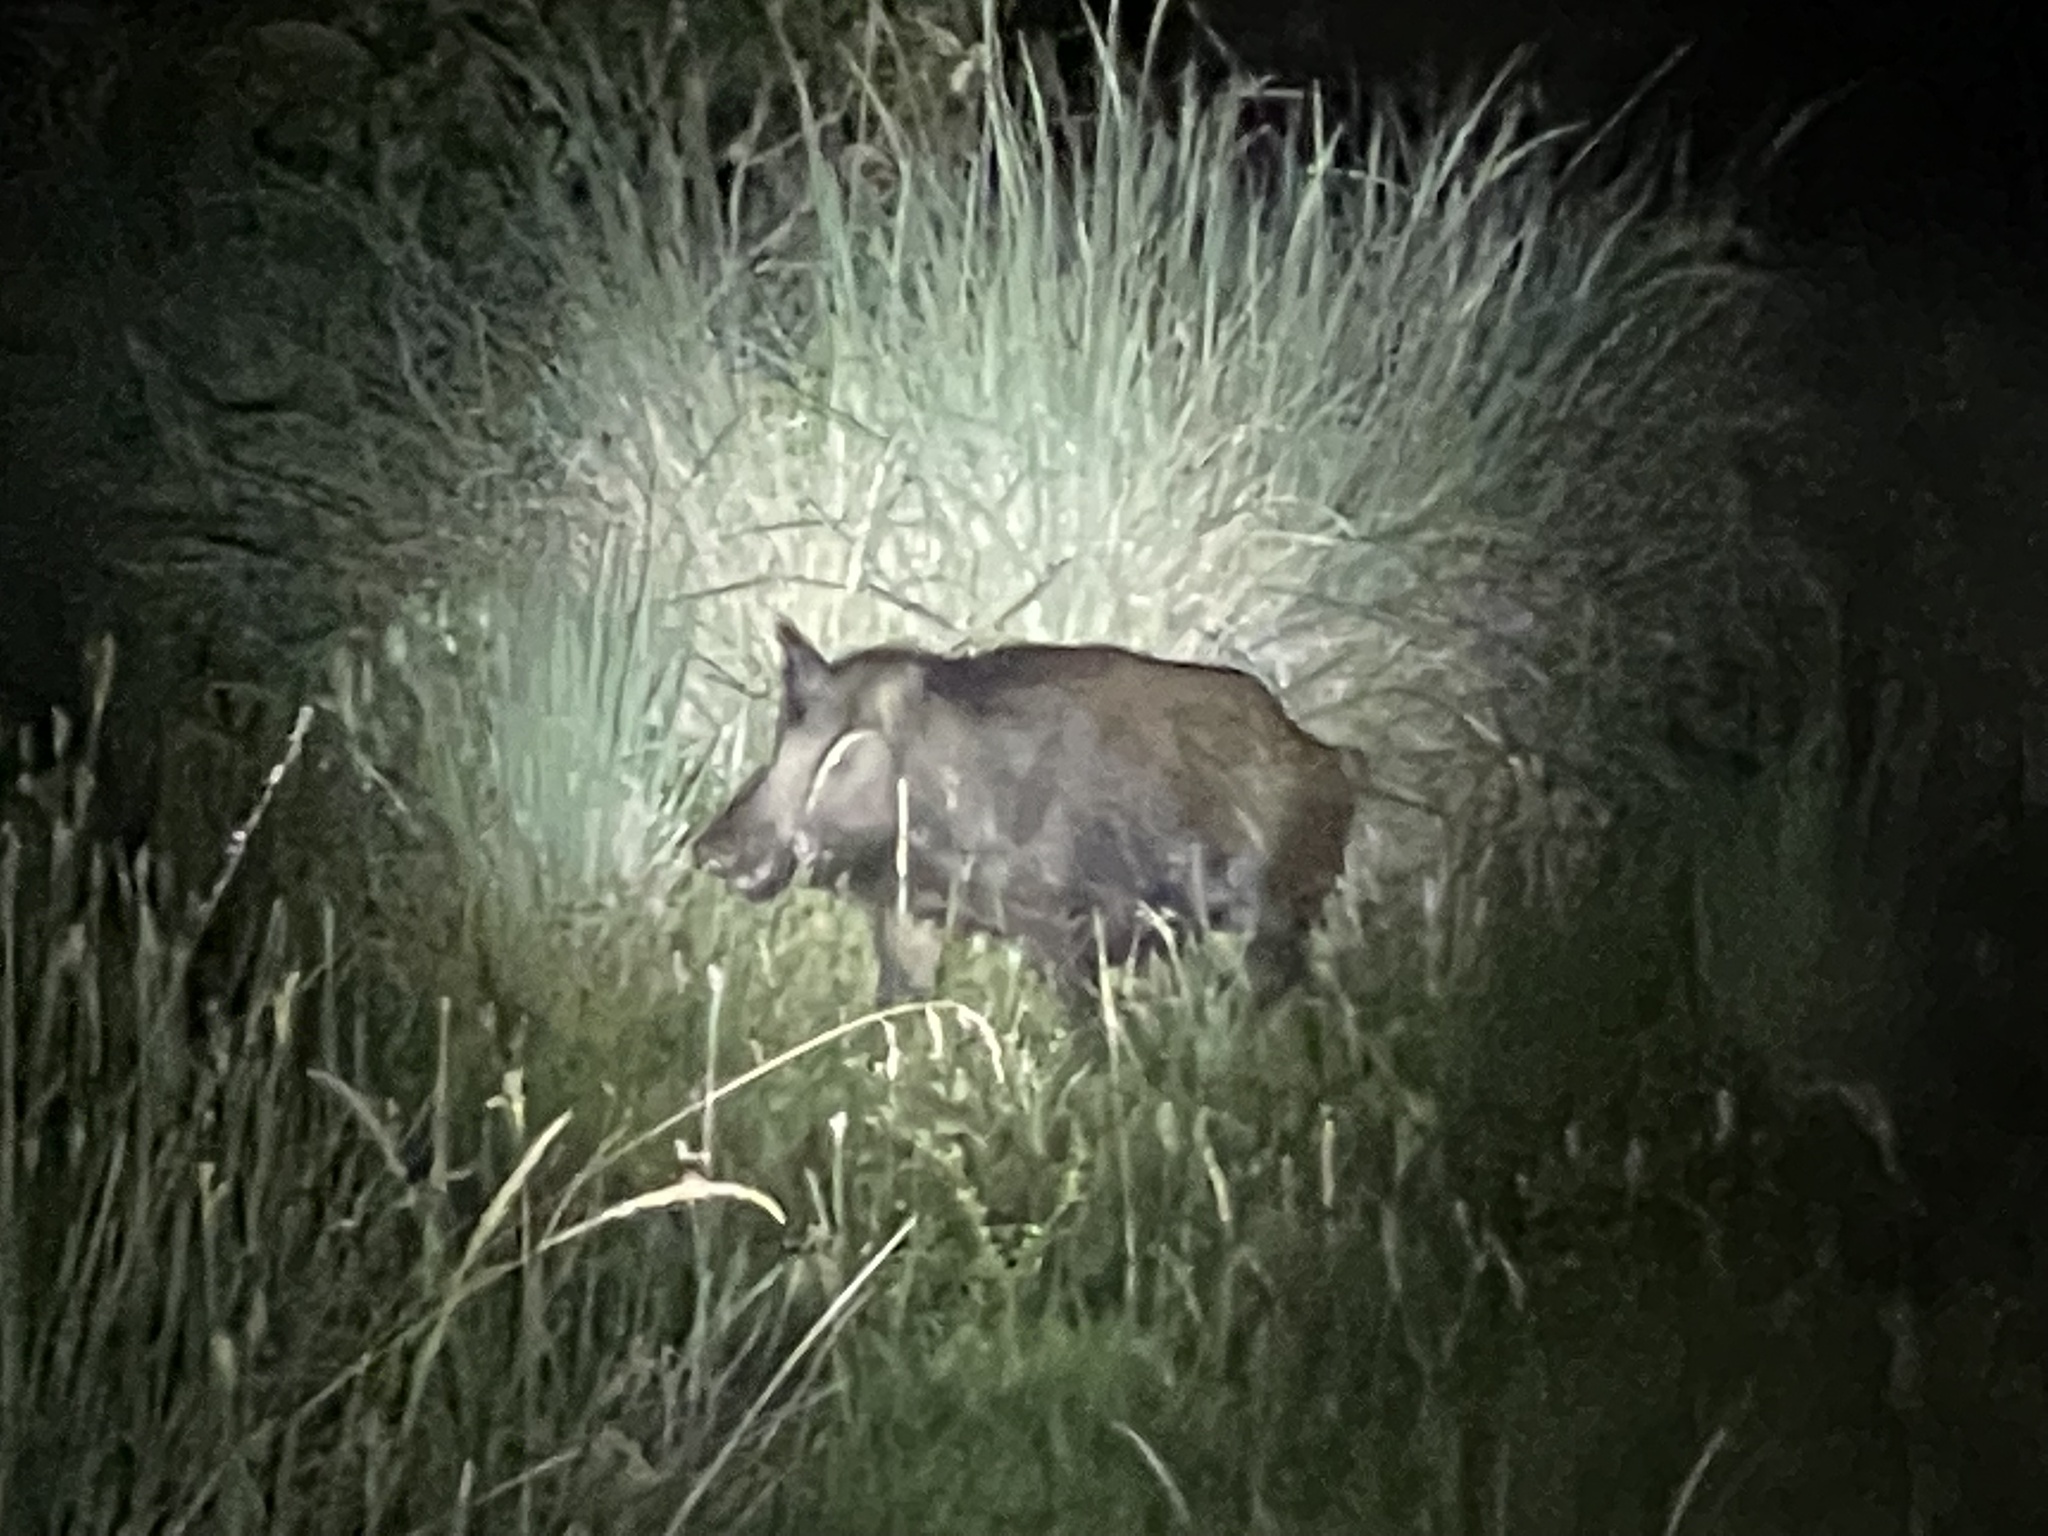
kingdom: Animalia
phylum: Chordata
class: Mammalia
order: Artiodactyla
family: Suidae
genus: Sus
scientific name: Sus scrofa
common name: Wild boar
